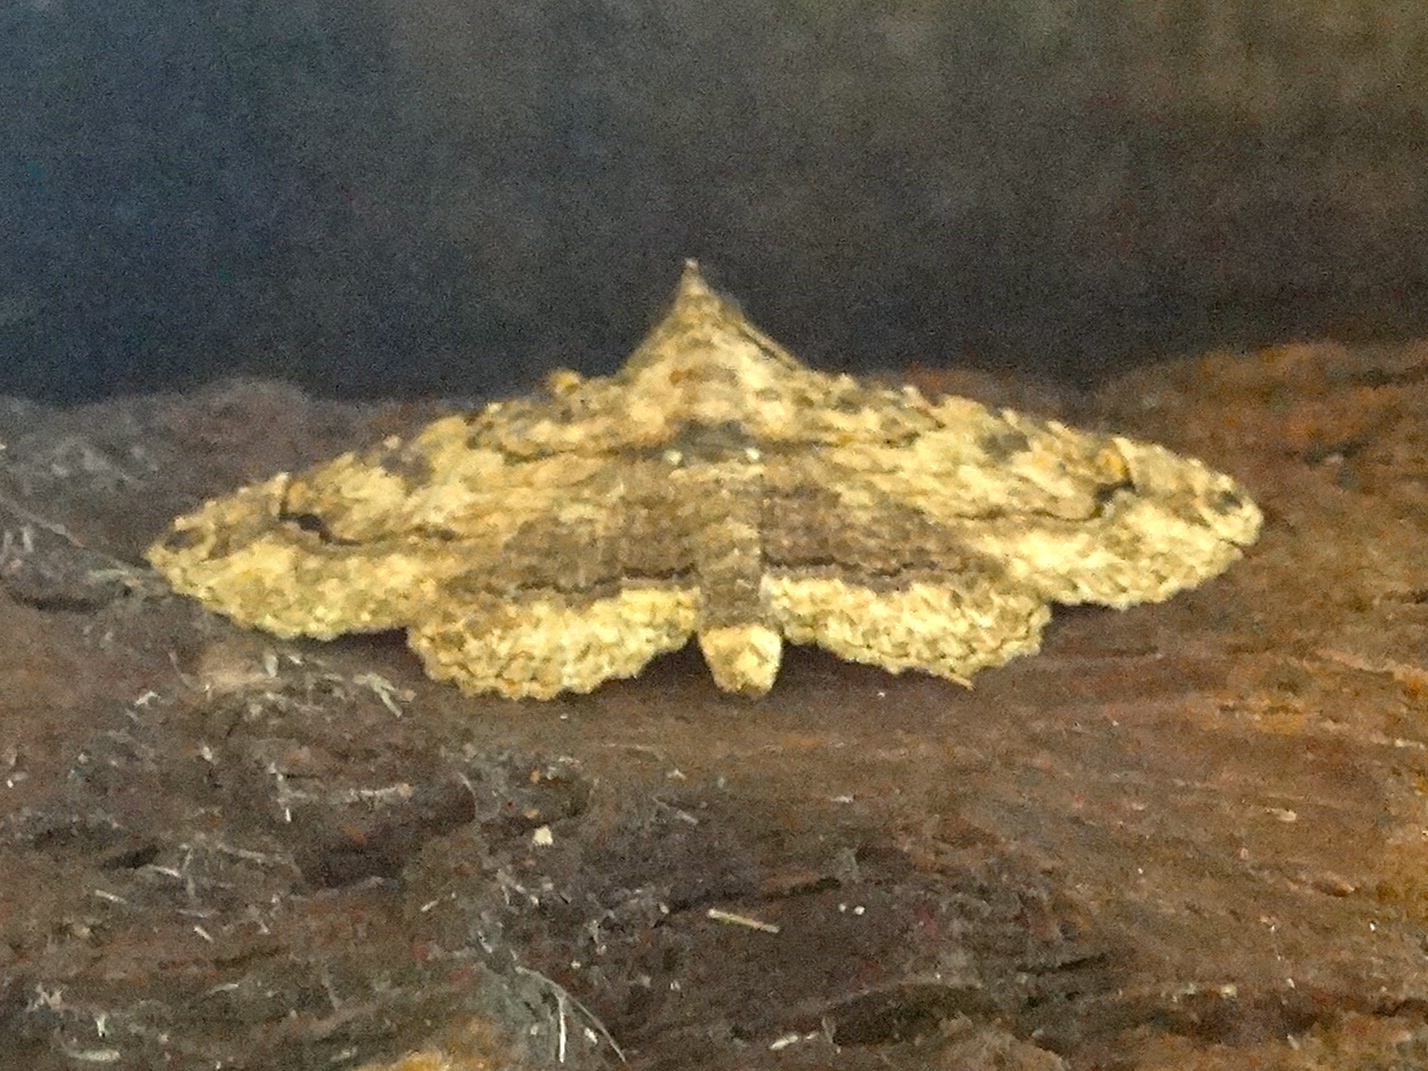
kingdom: Animalia
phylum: Arthropoda
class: Insecta
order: Lepidoptera
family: Erebidae
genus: Toxonprucha
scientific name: Toxonprucha
